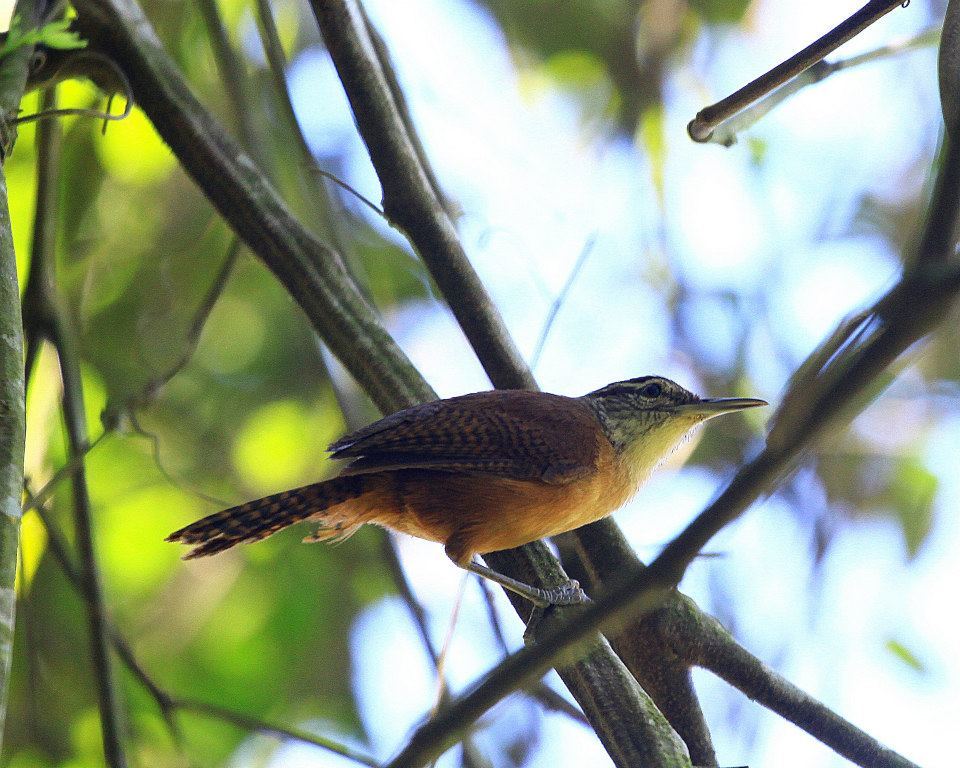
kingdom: Animalia
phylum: Chordata
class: Aves
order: Passeriformes
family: Troglodytidae
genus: Cantorchilus
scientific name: Cantorchilus longirostris
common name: Long-billed wren
